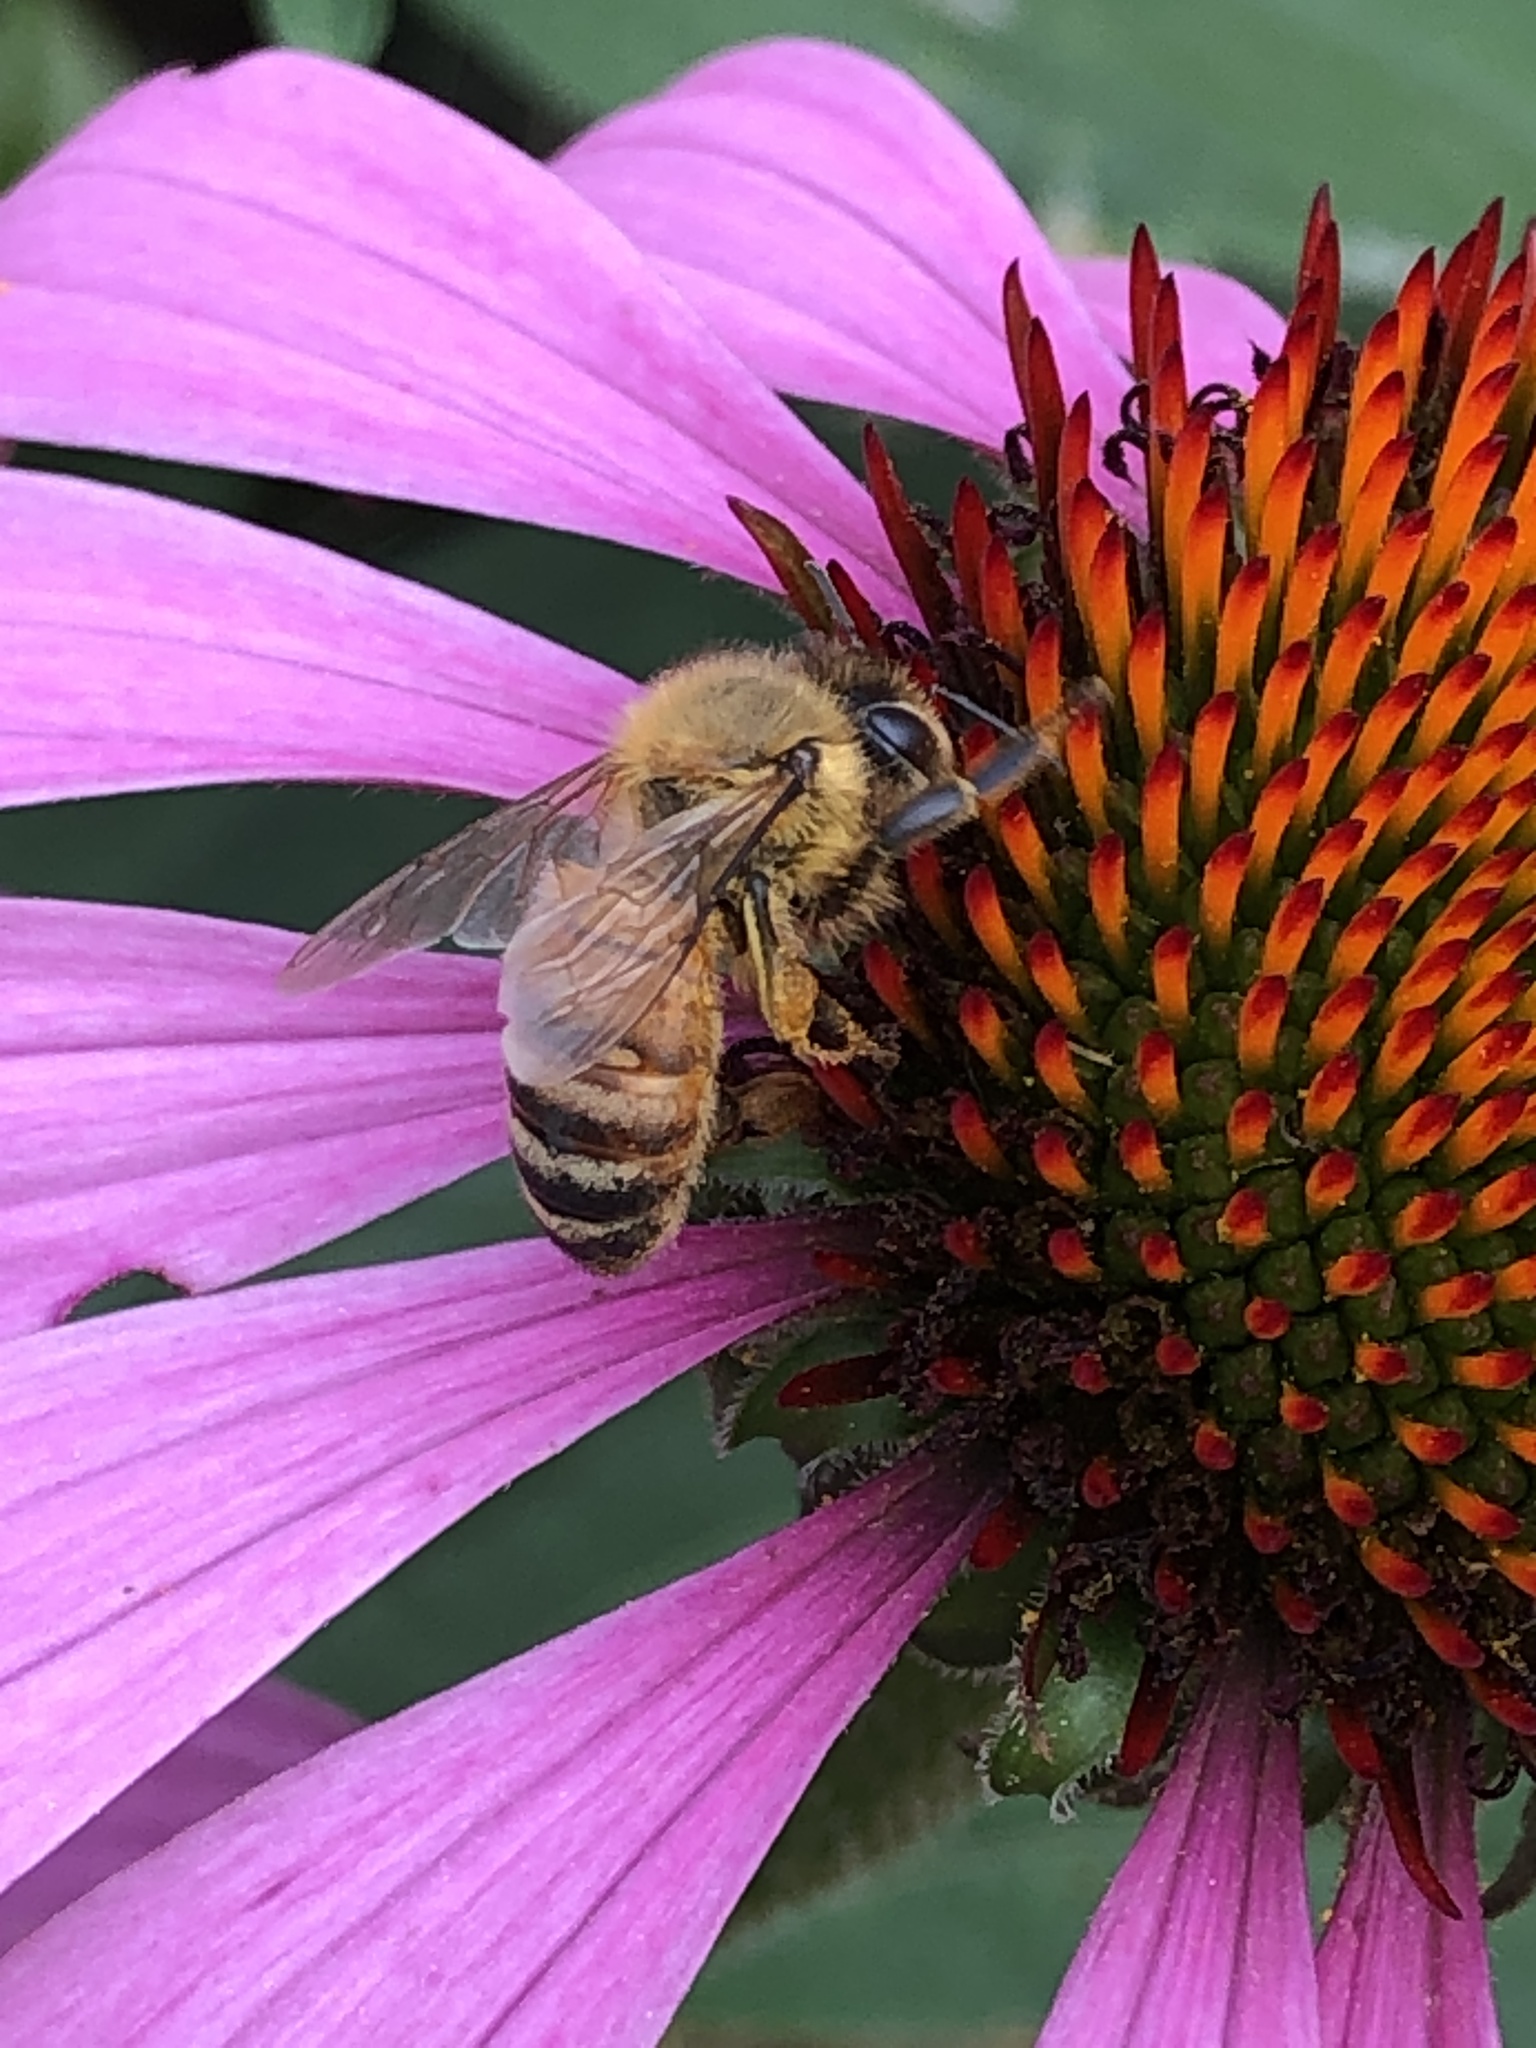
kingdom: Animalia
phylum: Arthropoda
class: Insecta
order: Hymenoptera
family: Apidae
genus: Apis
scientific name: Apis mellifera
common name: Honey bee
